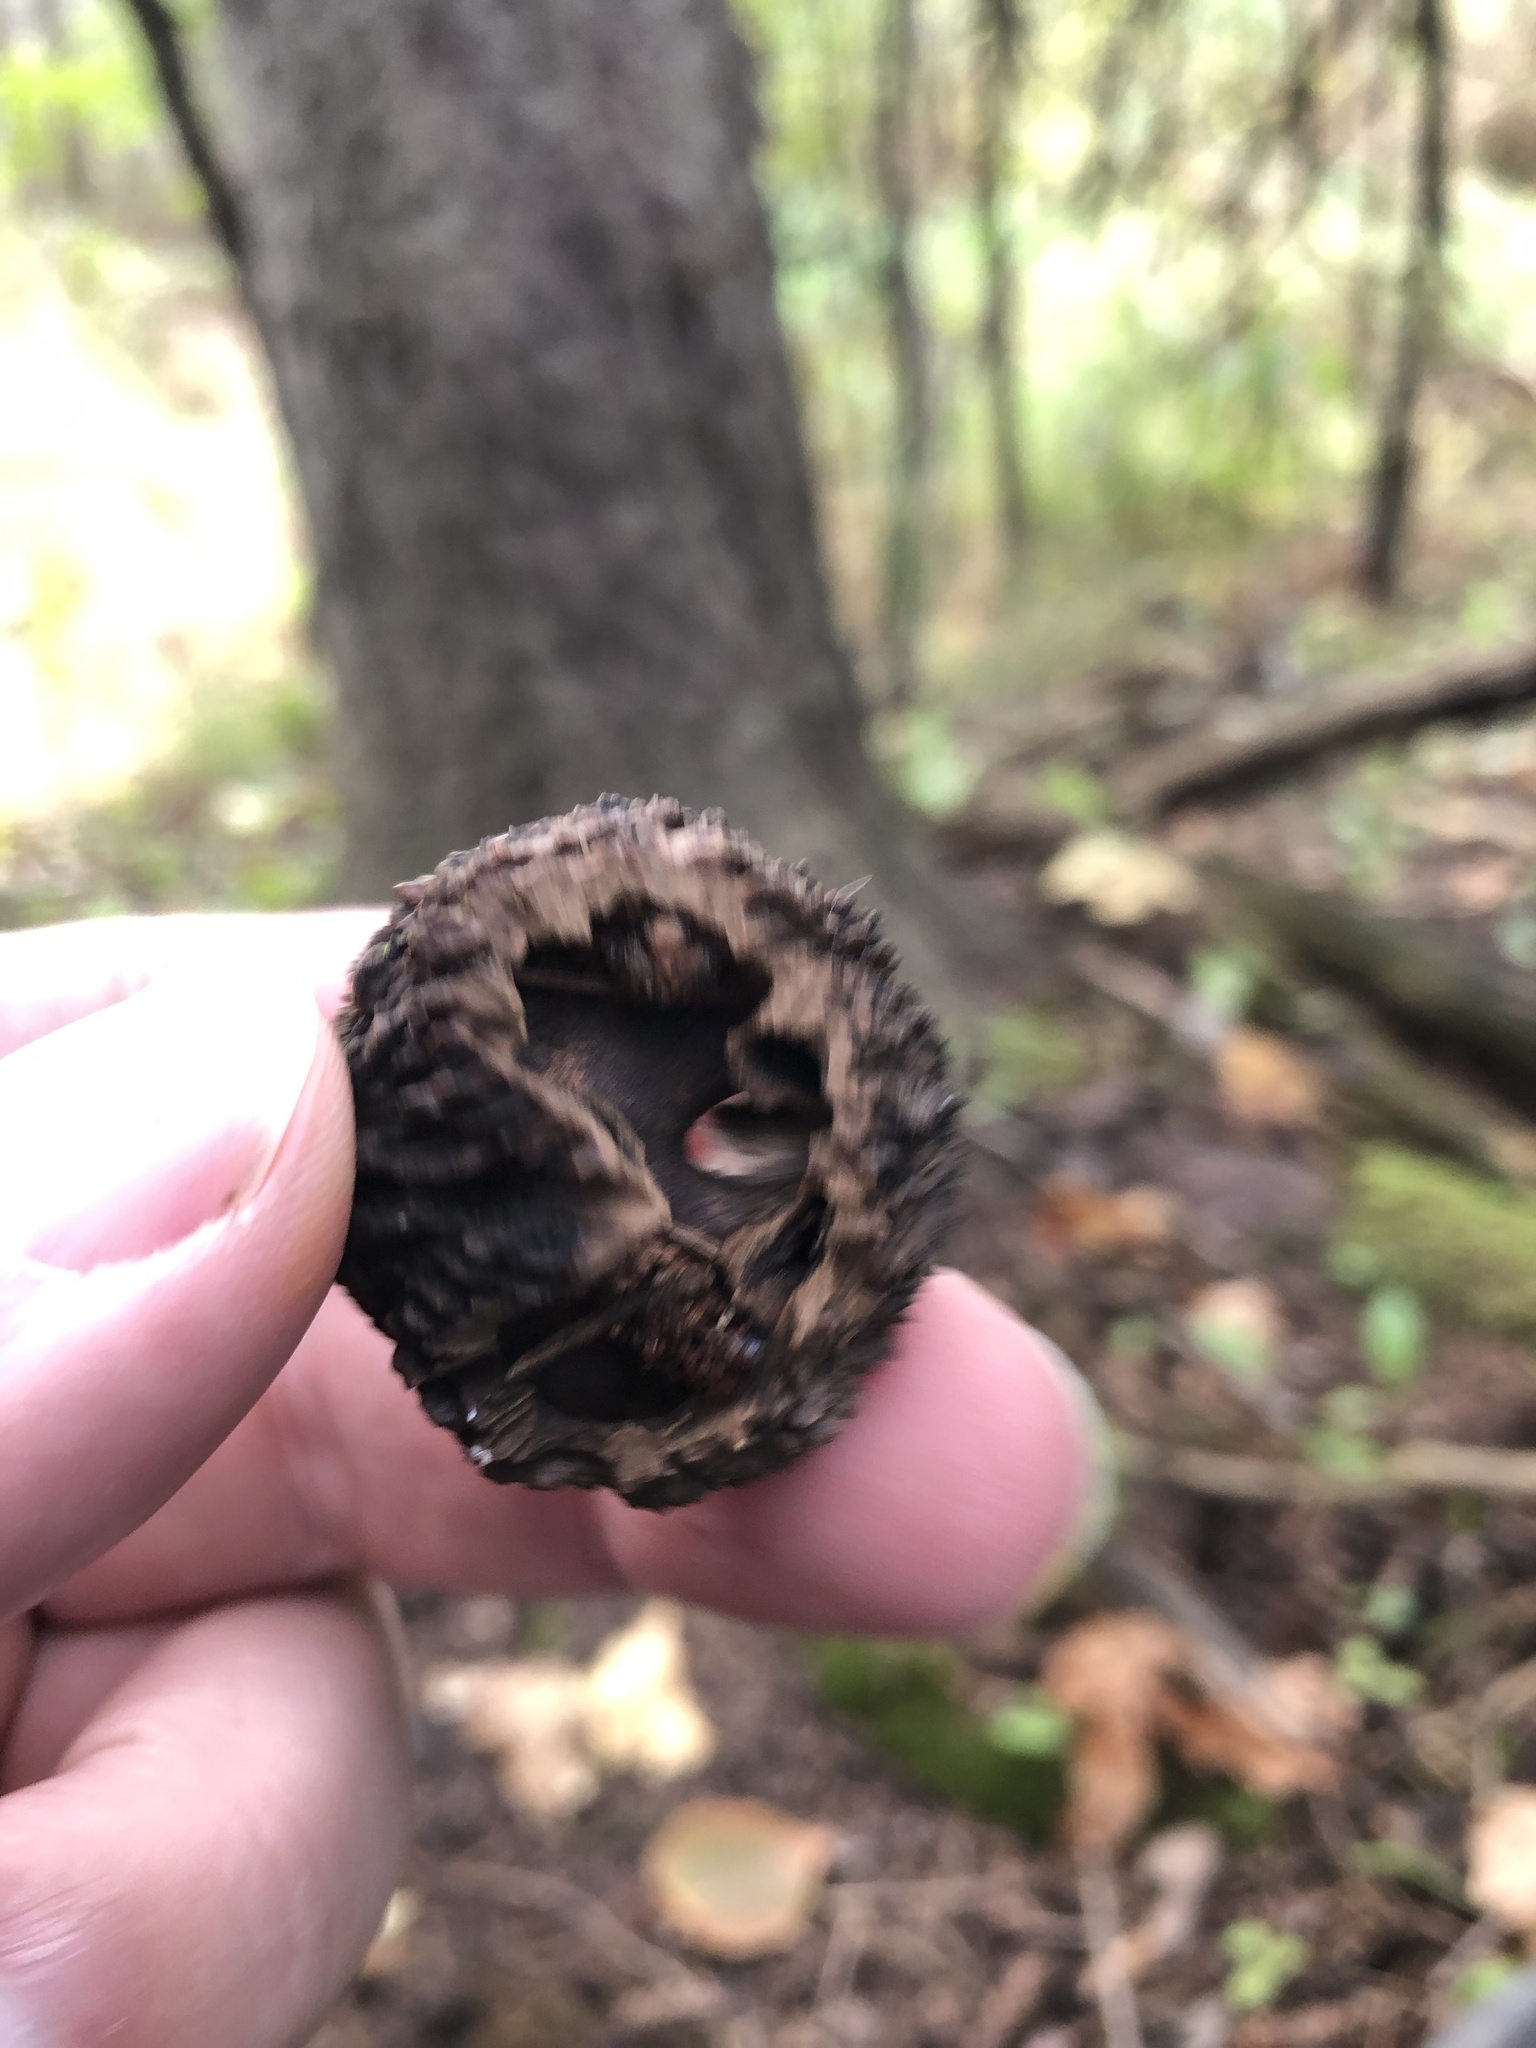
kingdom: Plantae
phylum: Tracheophyta
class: Magnoliopsida
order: Fagales
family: Juglandaceae
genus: Juglans
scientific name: Juglans nigra
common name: Black walnut
